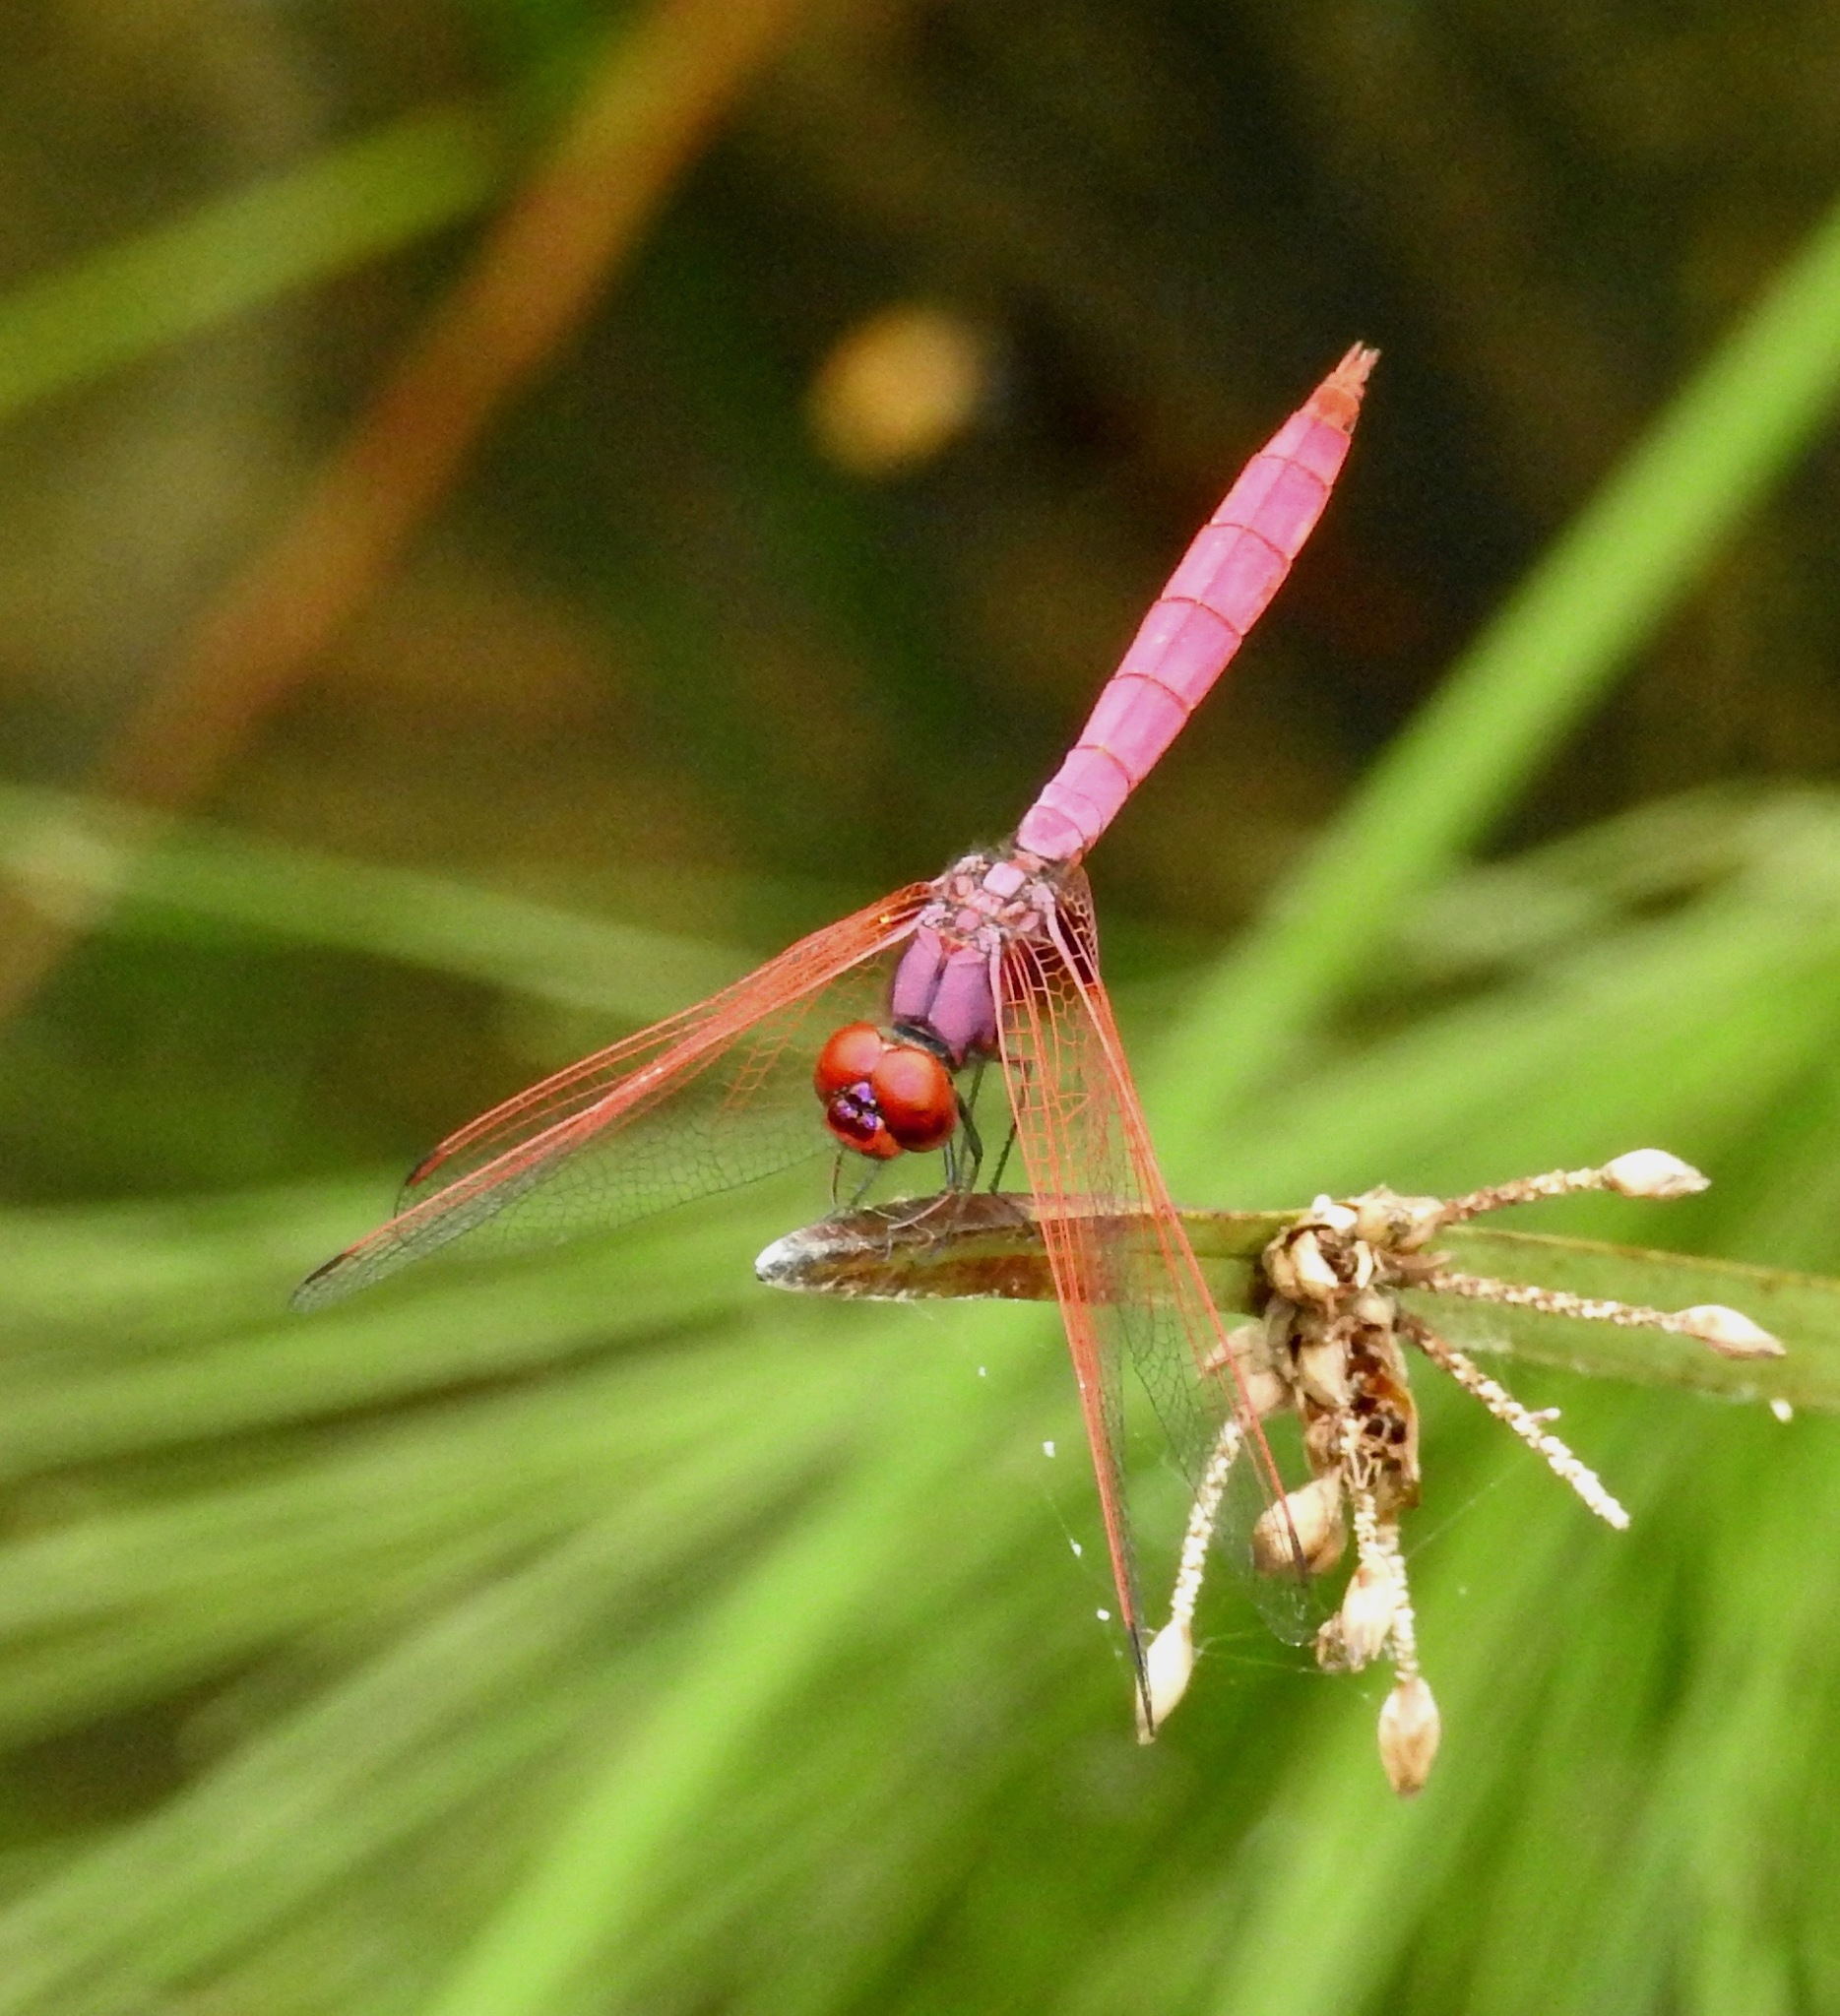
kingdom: Animalia
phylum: Arthropoda
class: Insecta
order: Odonata
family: Libellulidae
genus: Trithemis
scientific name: Trithemis aurora
